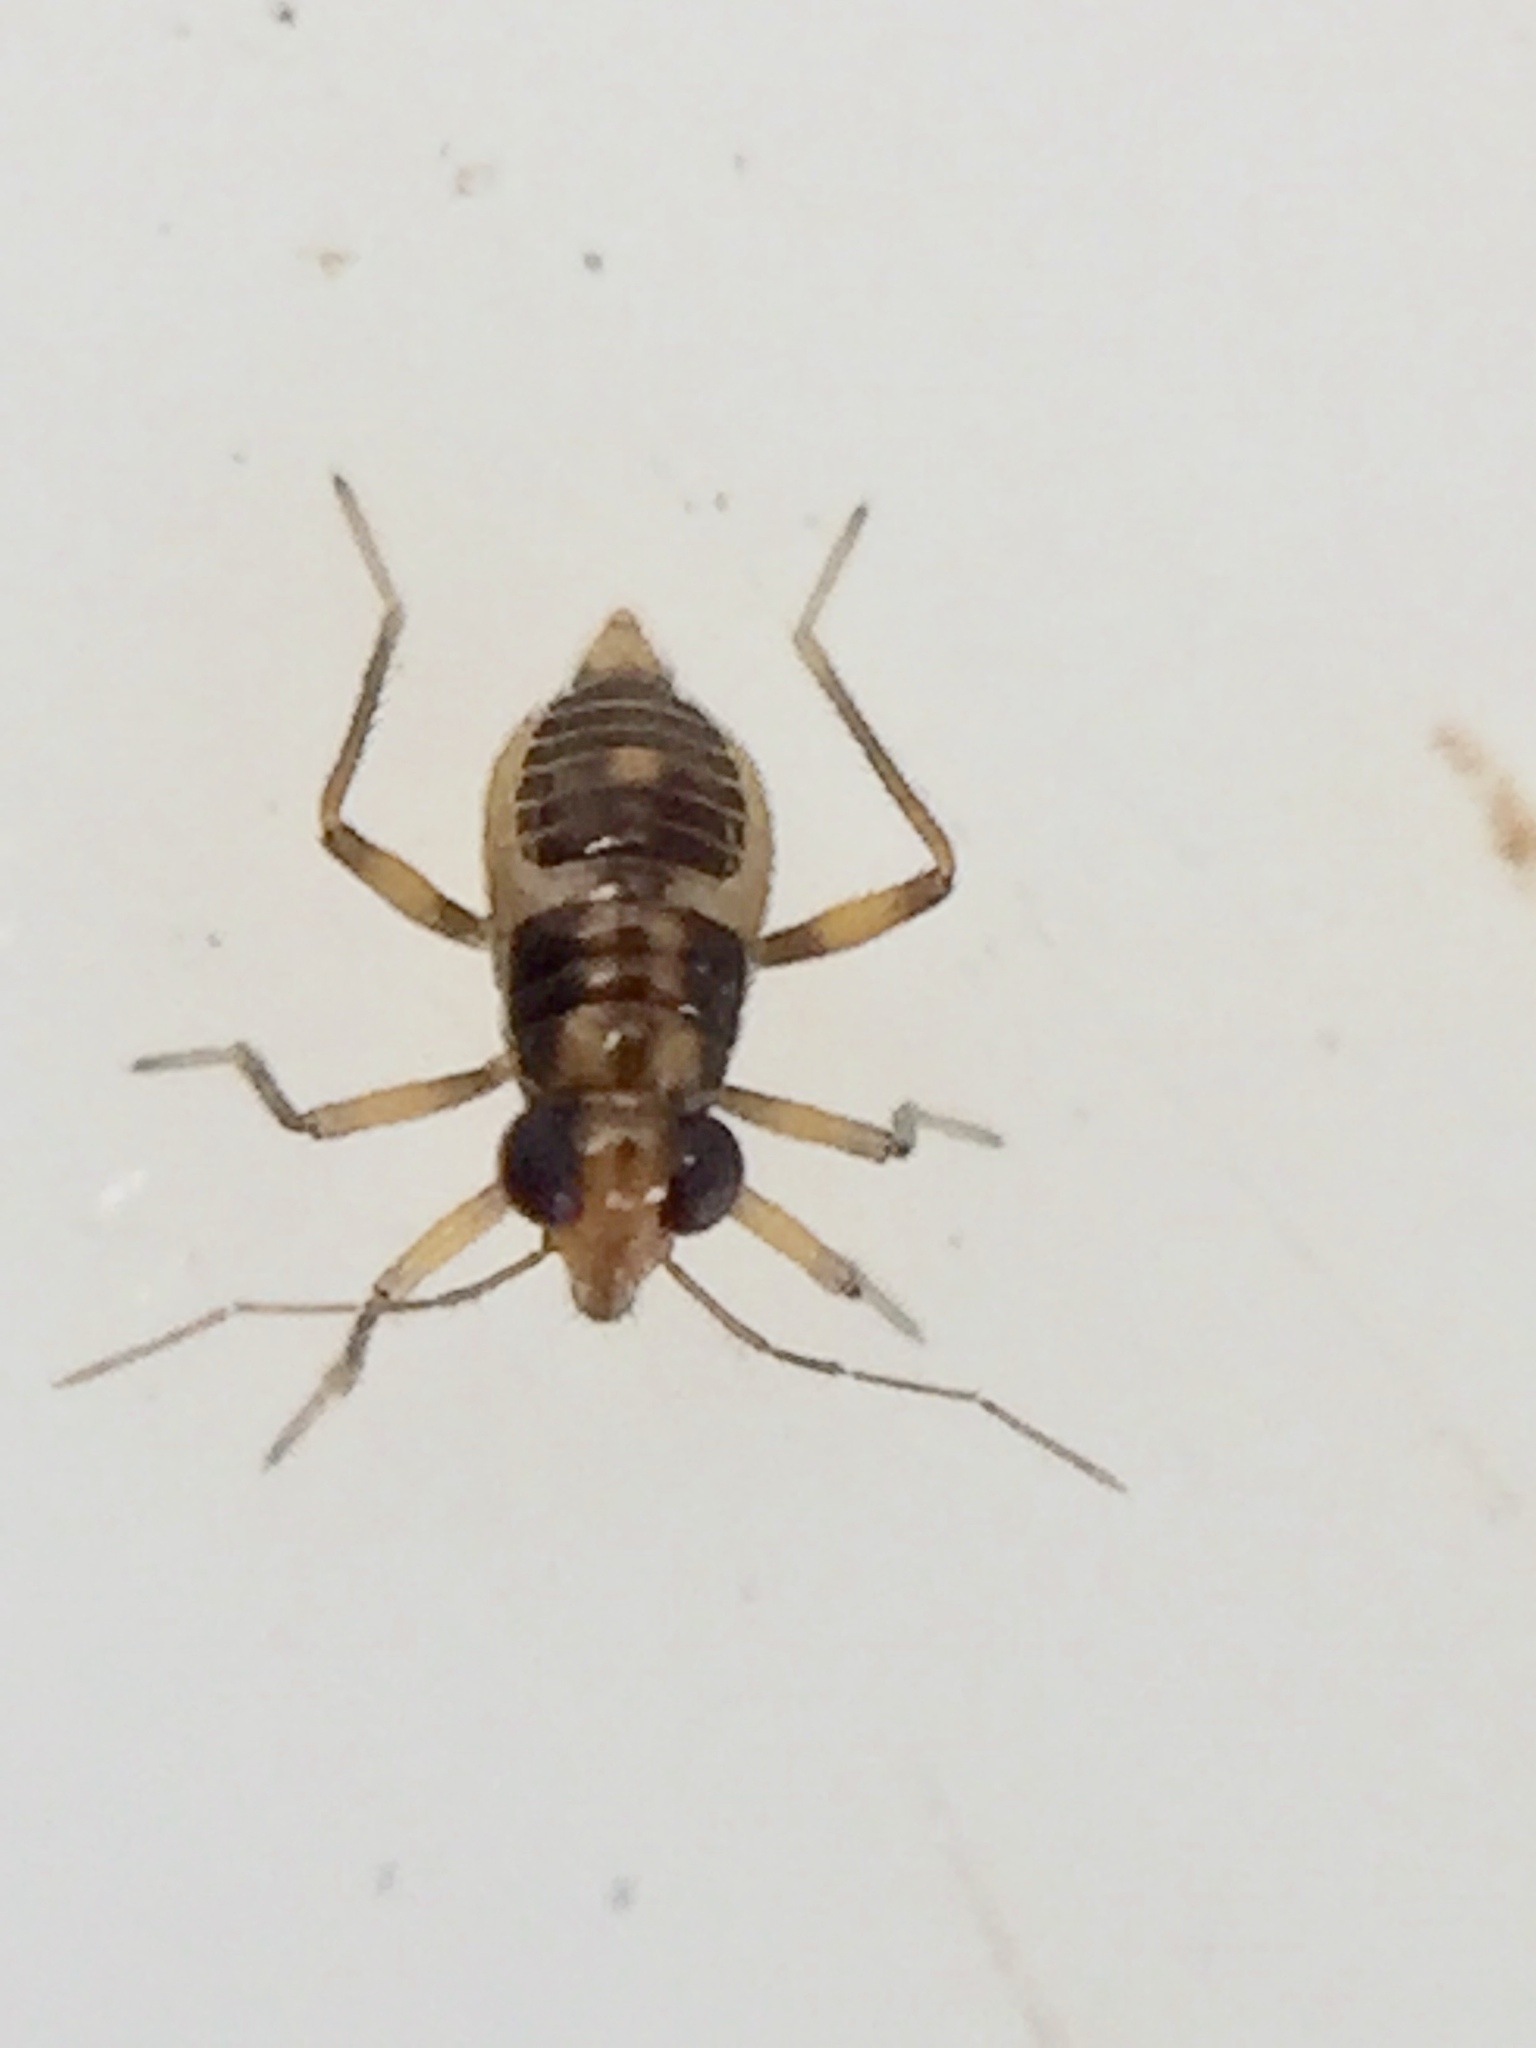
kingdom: Animalia
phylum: Arthropoda
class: Insecta
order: Hemiptera
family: Mesoveliidae
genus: Mniovelia
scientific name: Mniovelia kuscheli
